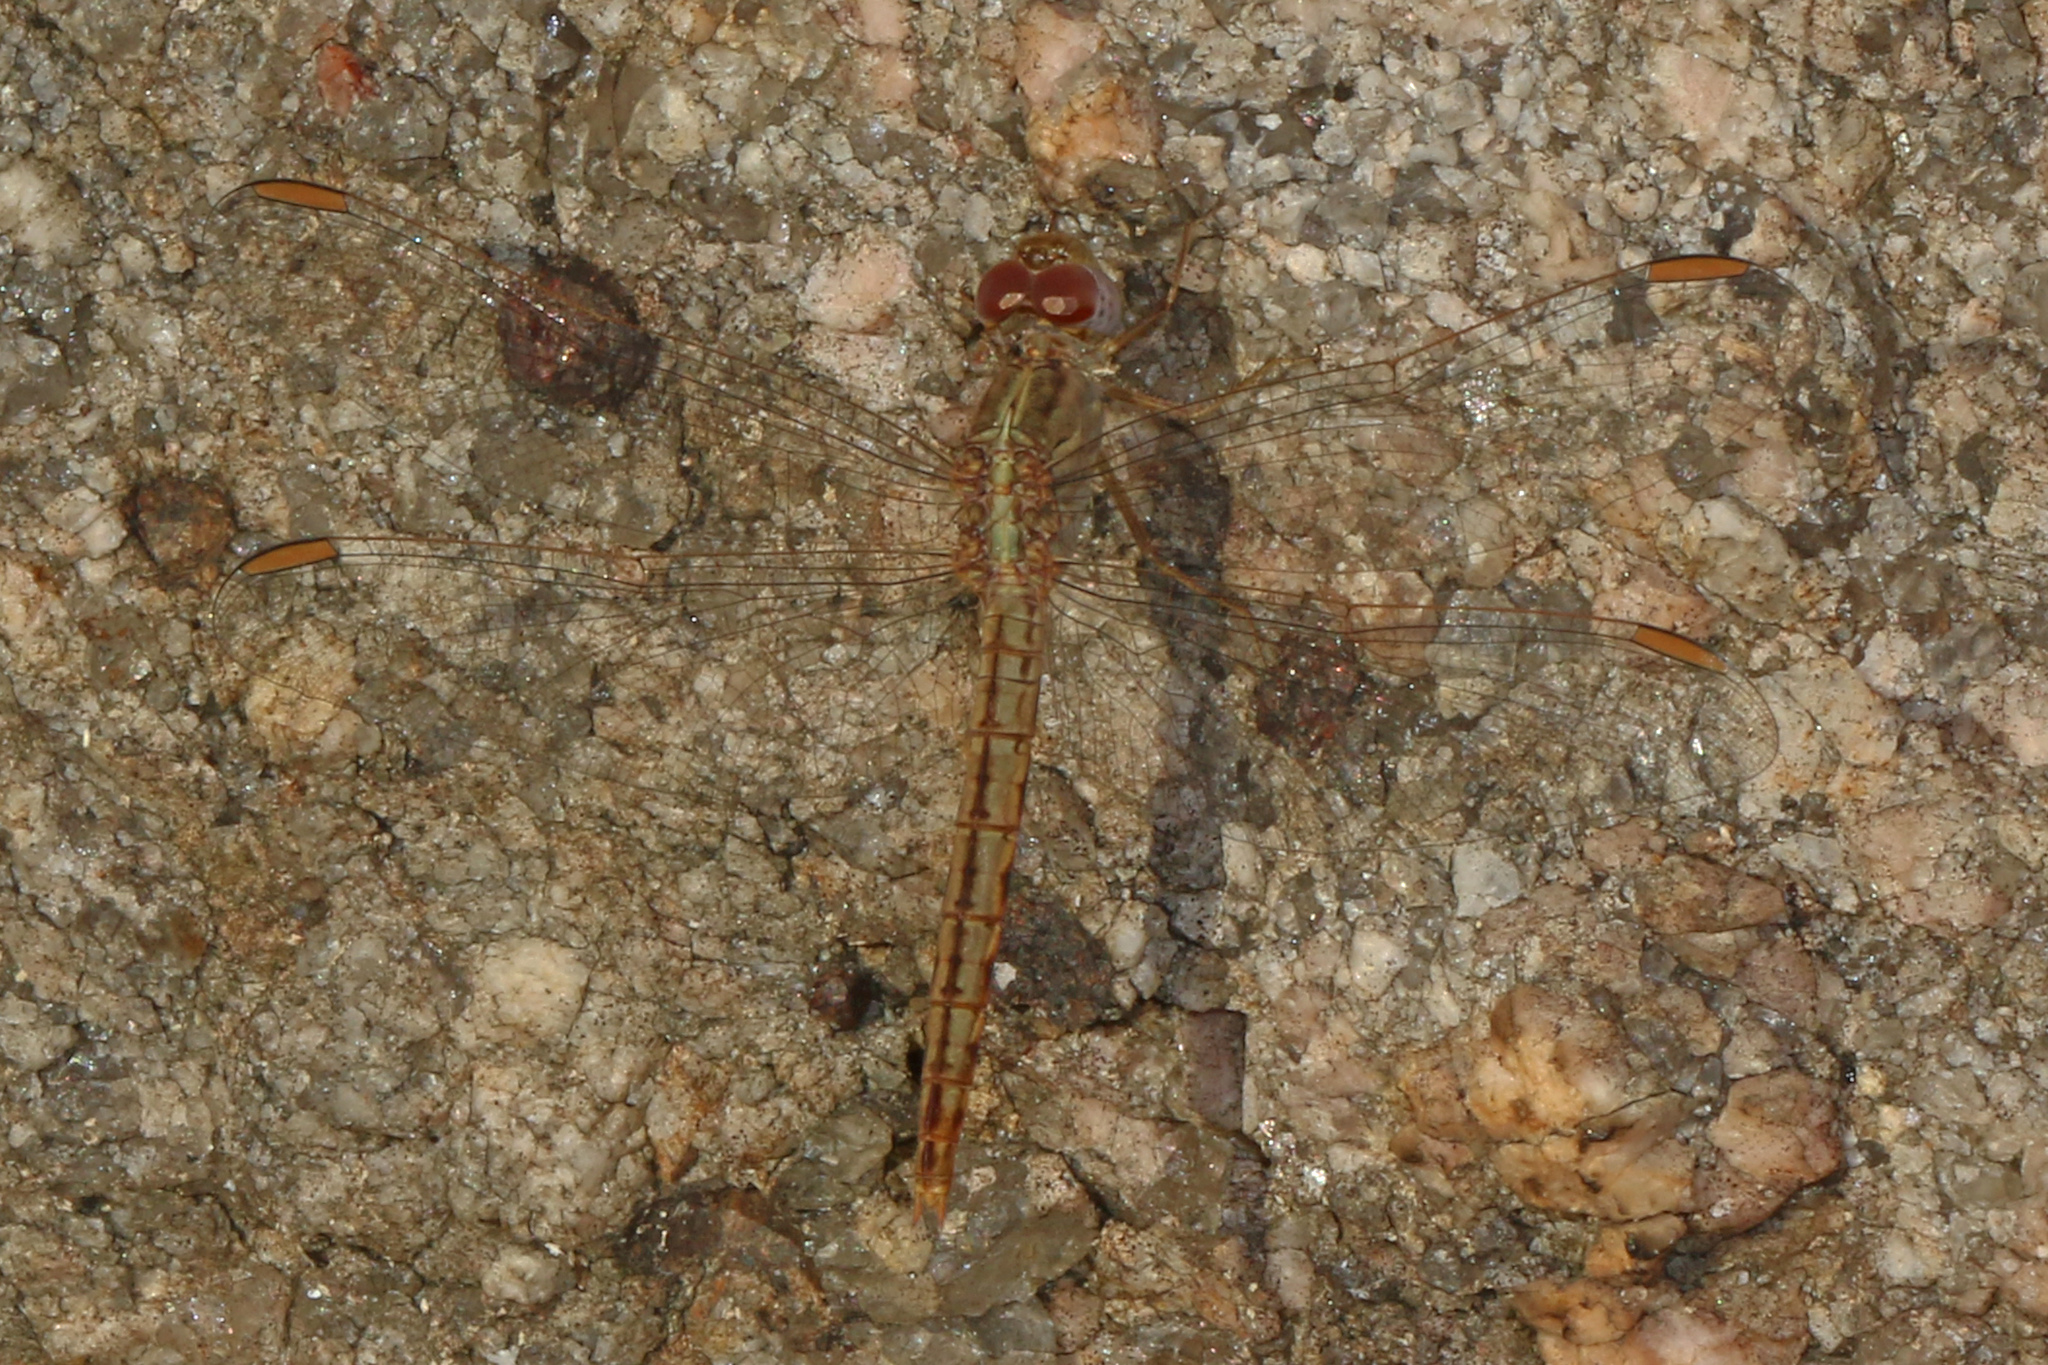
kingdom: Animalia
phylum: Arthropoda
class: Insecta
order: Odonata
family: Libellulidae
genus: Crocothemis
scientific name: Crocothemis divisa
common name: Divisa scarlet
